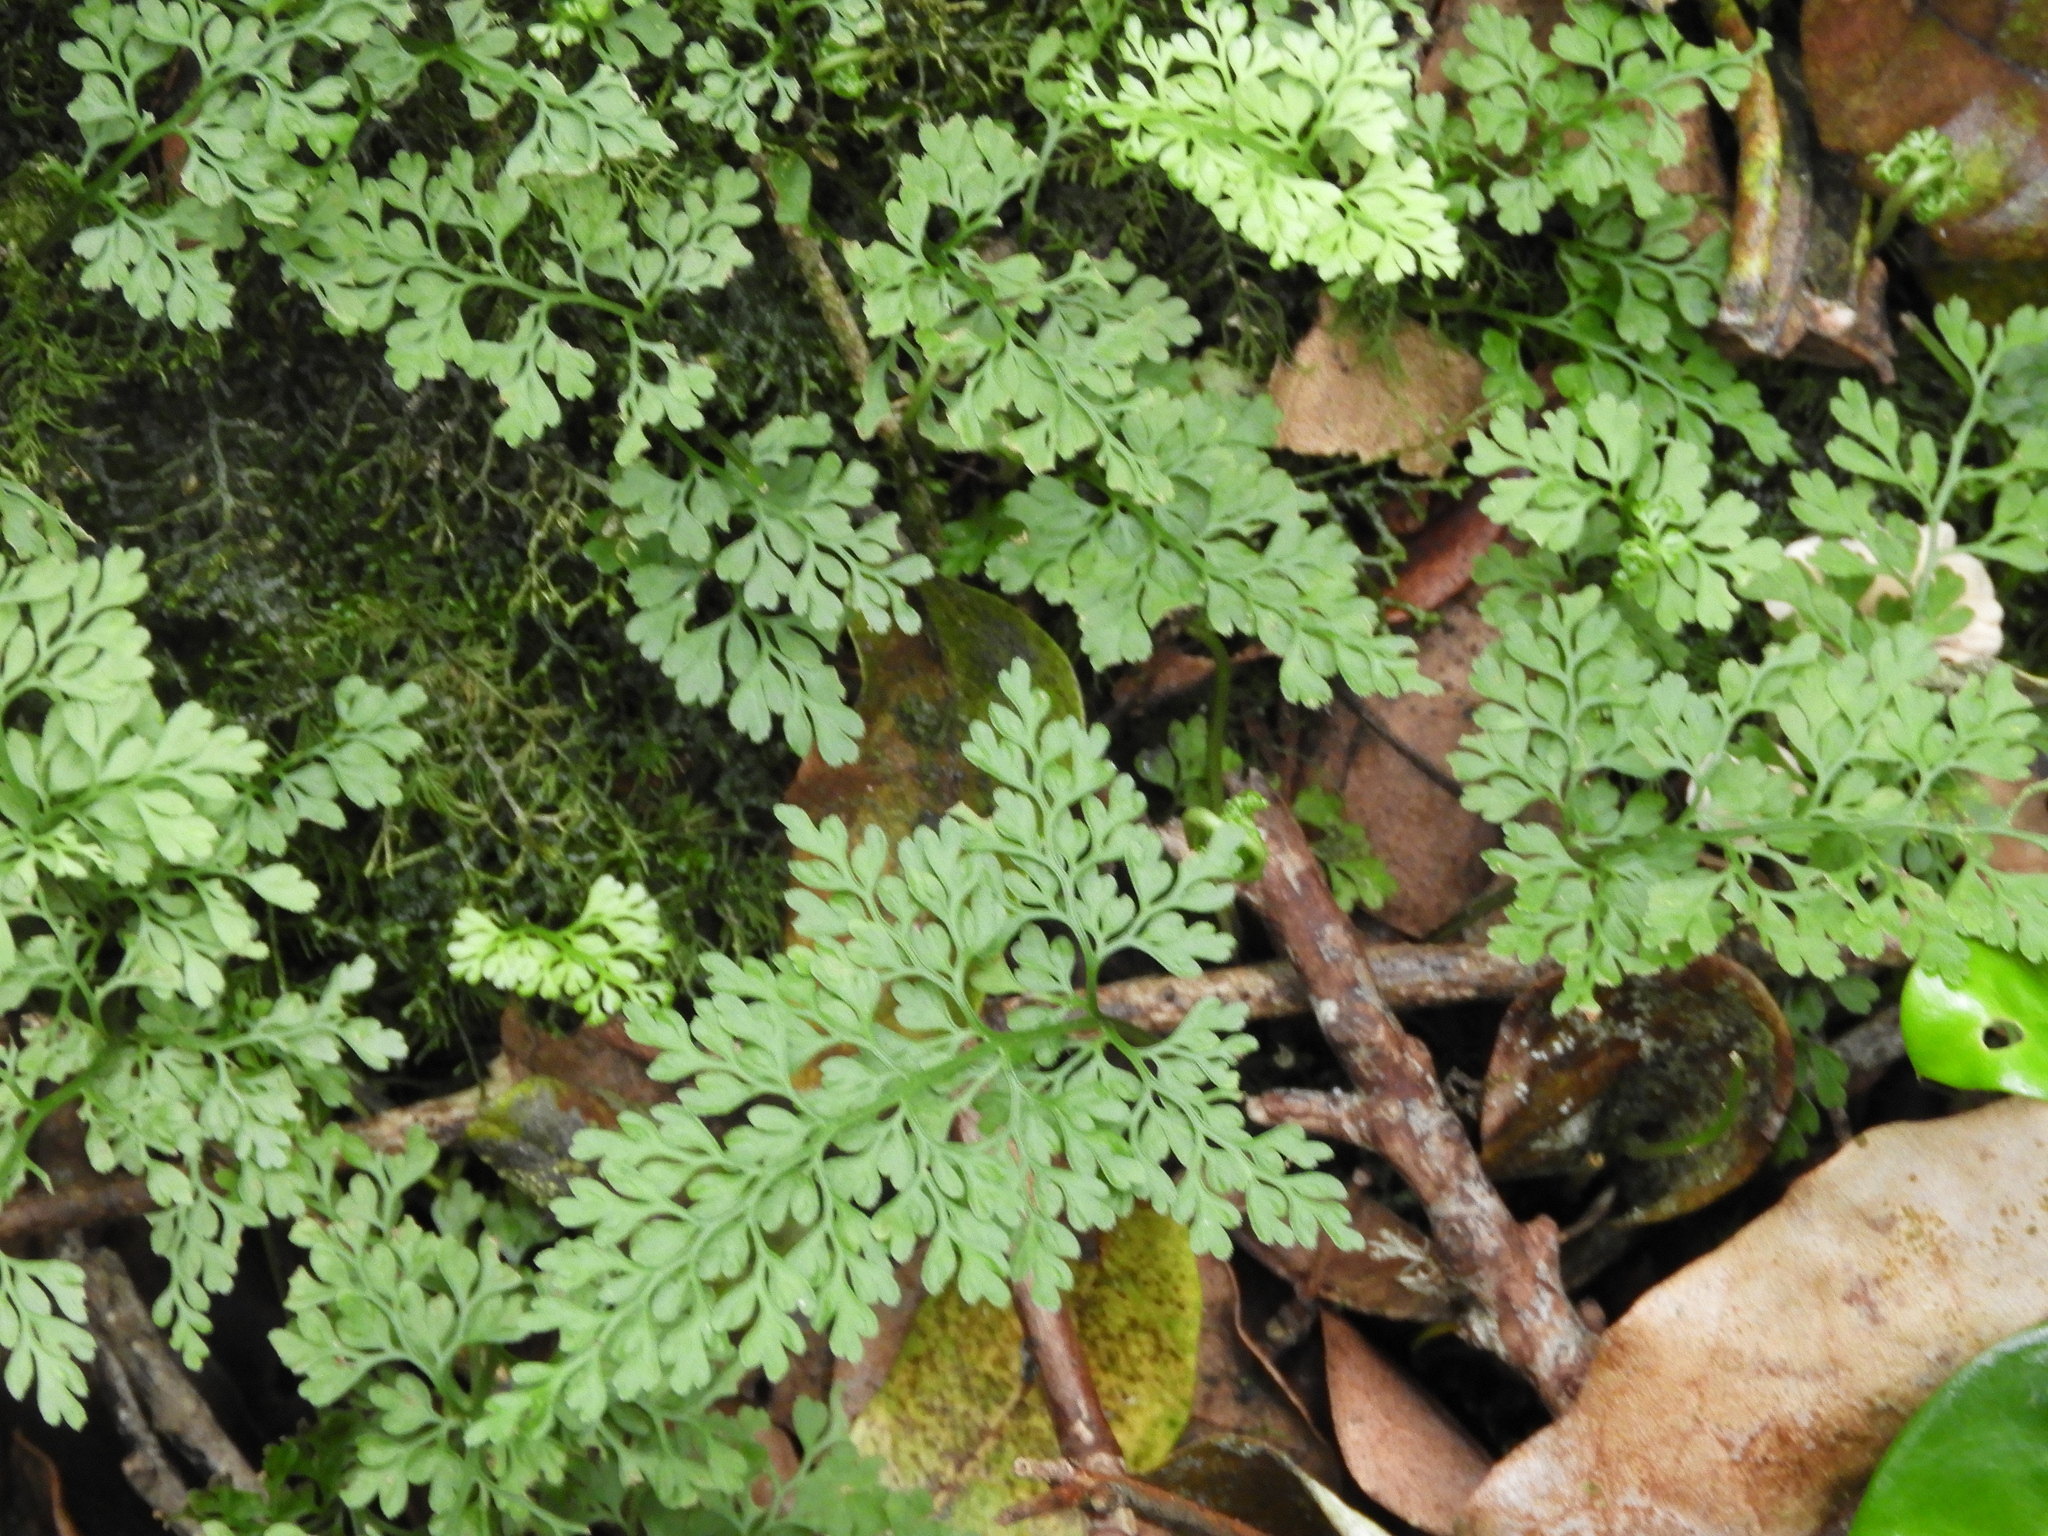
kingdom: Plantae
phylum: Tracheophyta
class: Polypodiopsida
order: Polypodiales
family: Aspleniaceae
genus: Asplenium
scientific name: Asplenium dareoides
